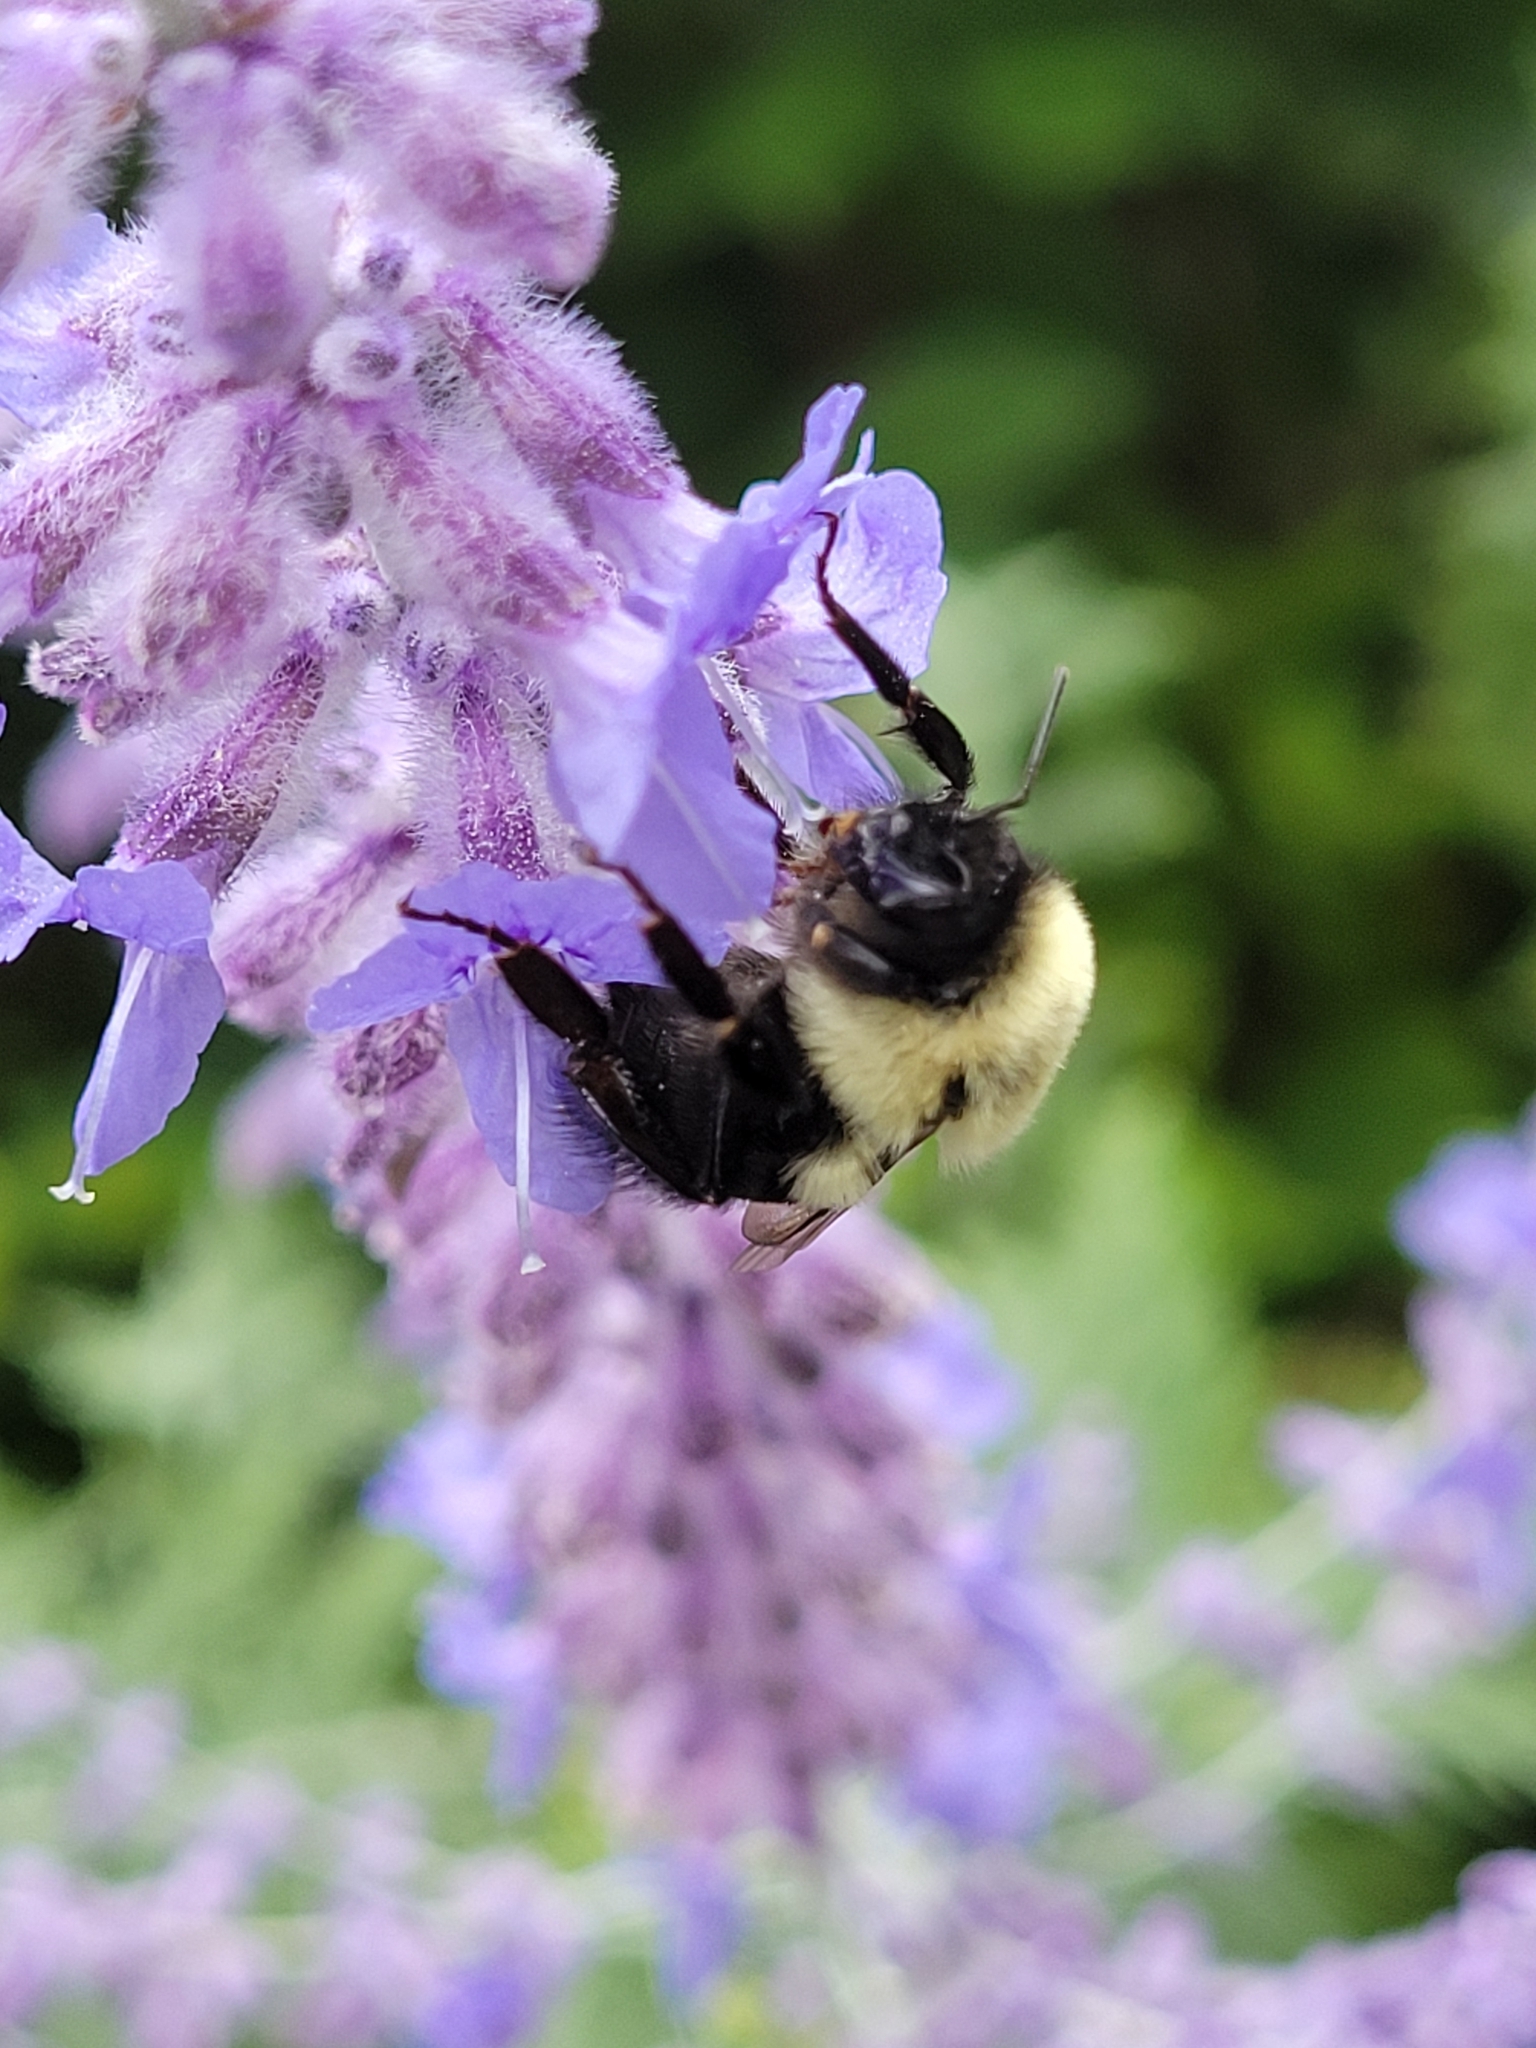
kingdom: Animalia
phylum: Arthropoda
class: Insecta
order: Hymenoptera
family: Apidae
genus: Bombus
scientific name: Bombus impatiens
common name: Common eastern bumble bee
